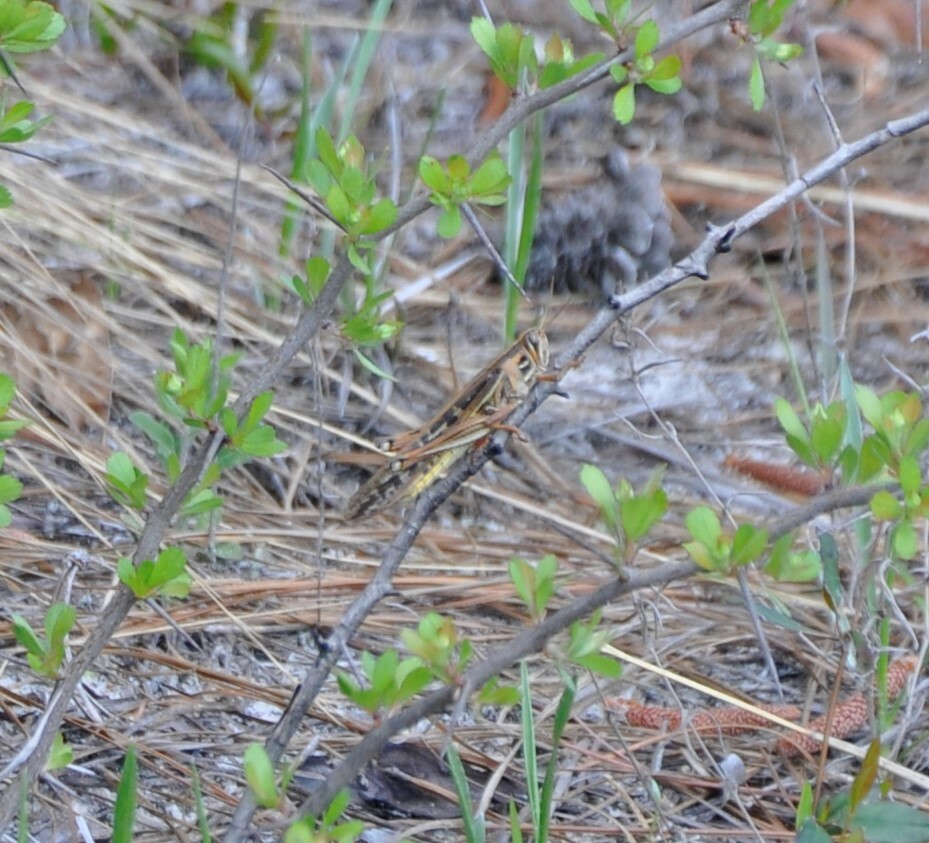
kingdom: Animalia
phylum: Arthropoda
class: Insecta
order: Orthoptera
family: Acrididae
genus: Schistocerca
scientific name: Schistocerca americana
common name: American bird locust
